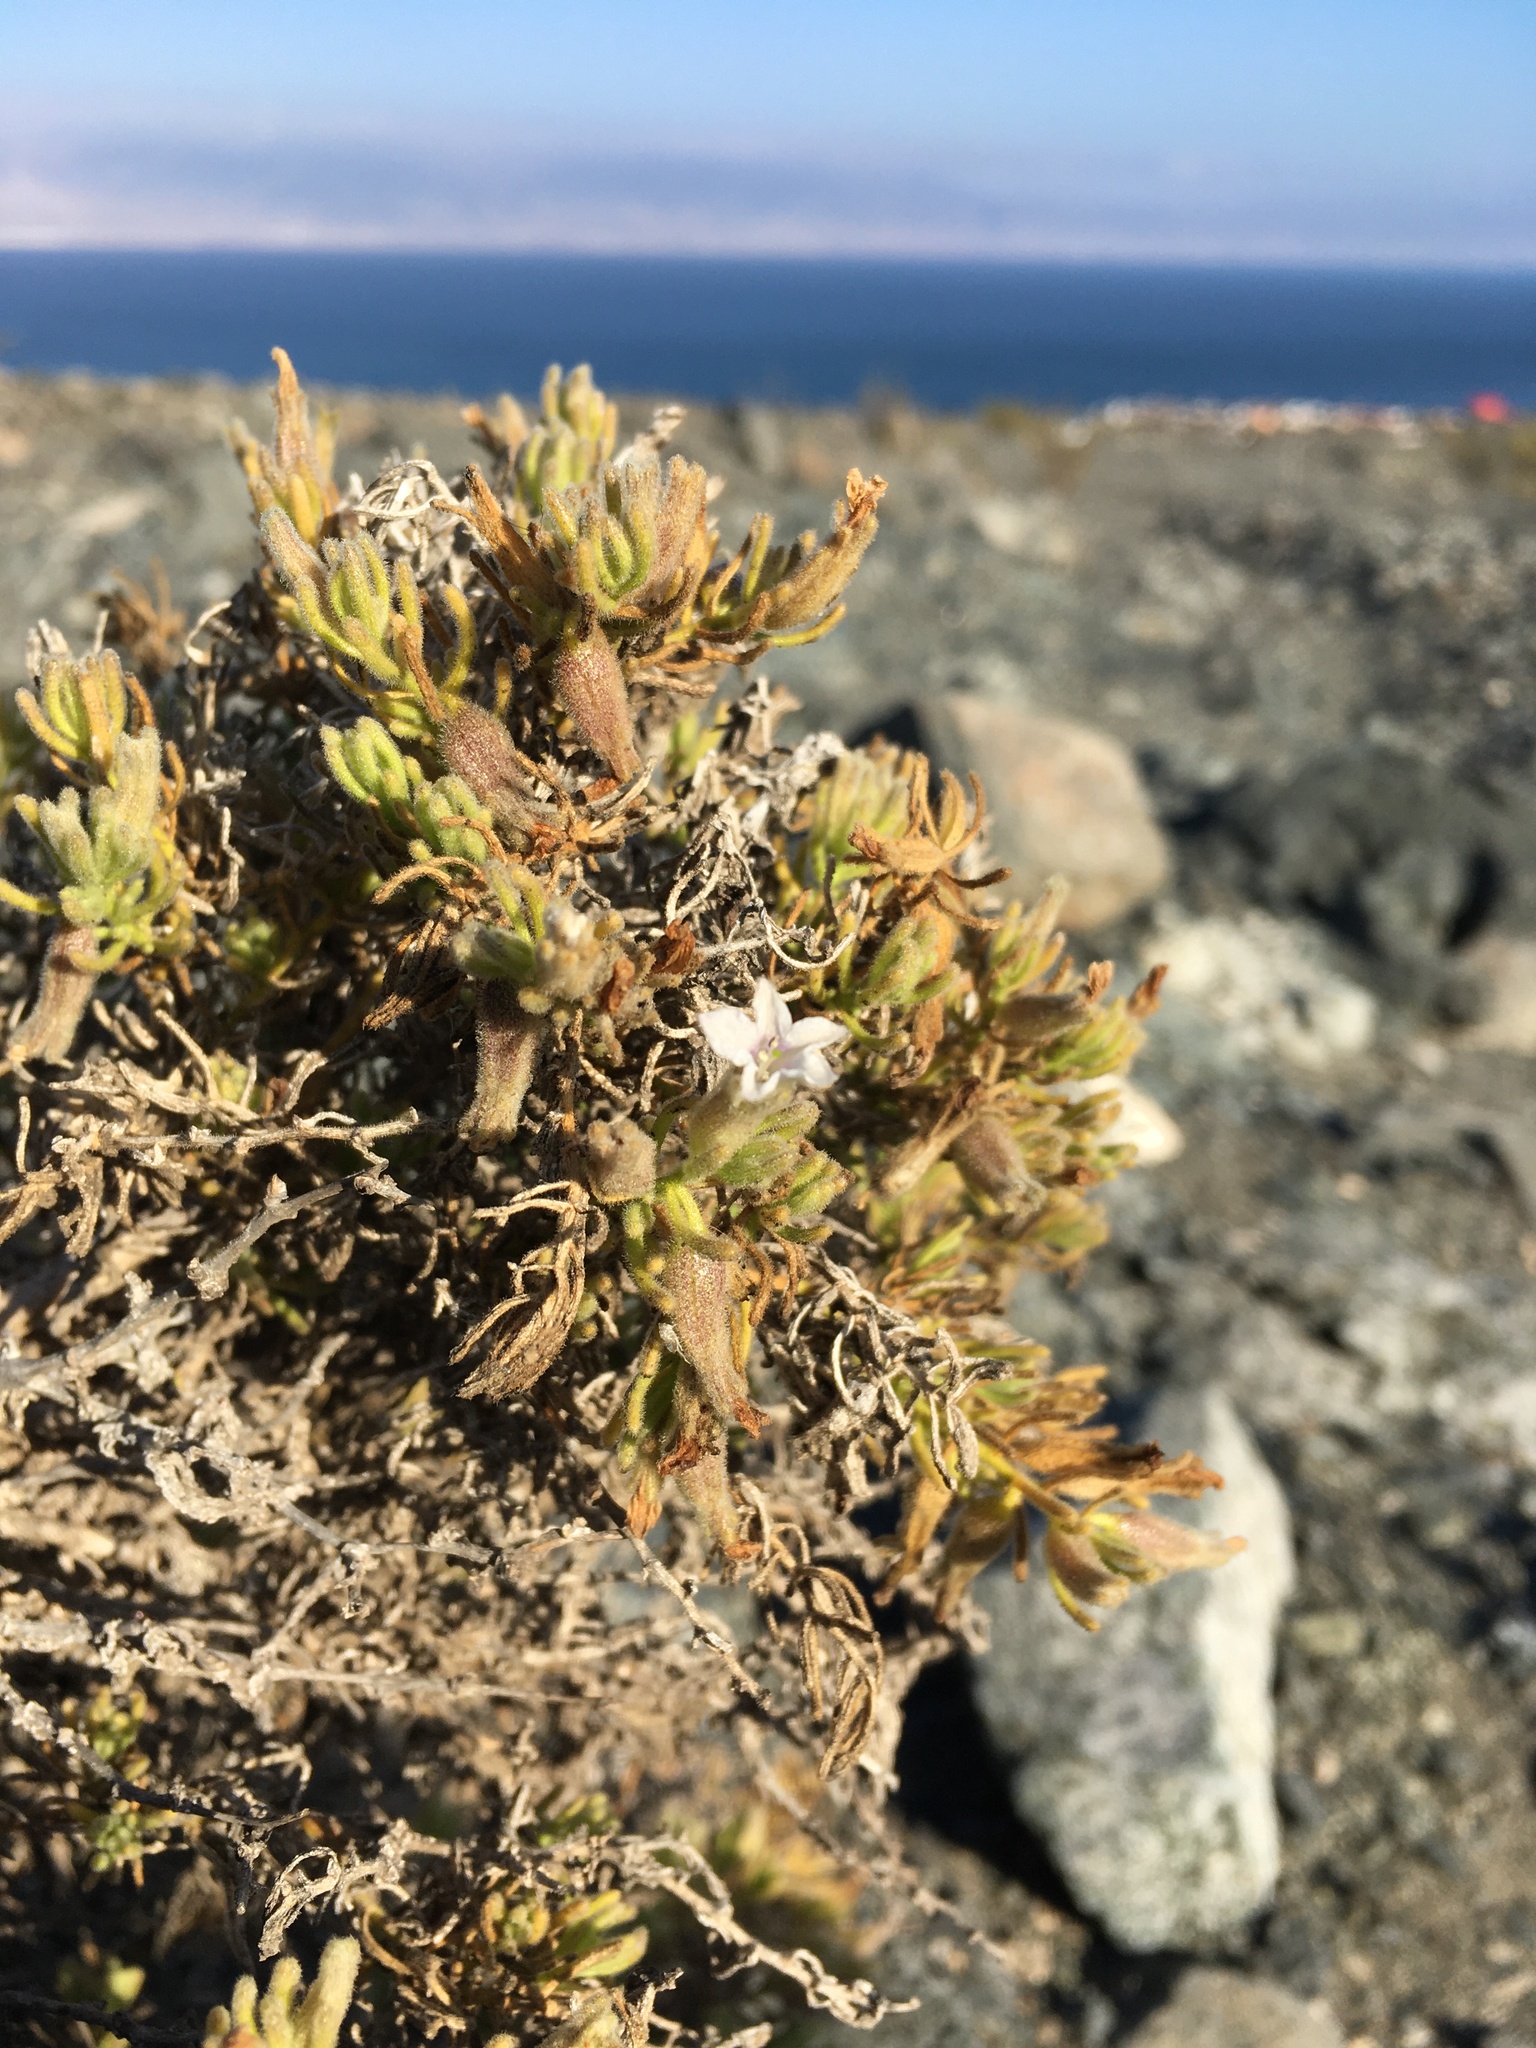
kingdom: Plantae
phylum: Tracheophyta
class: Magnoliopsida
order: Solanales
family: Solanaceae
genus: Nolana
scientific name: Nolana villosa
